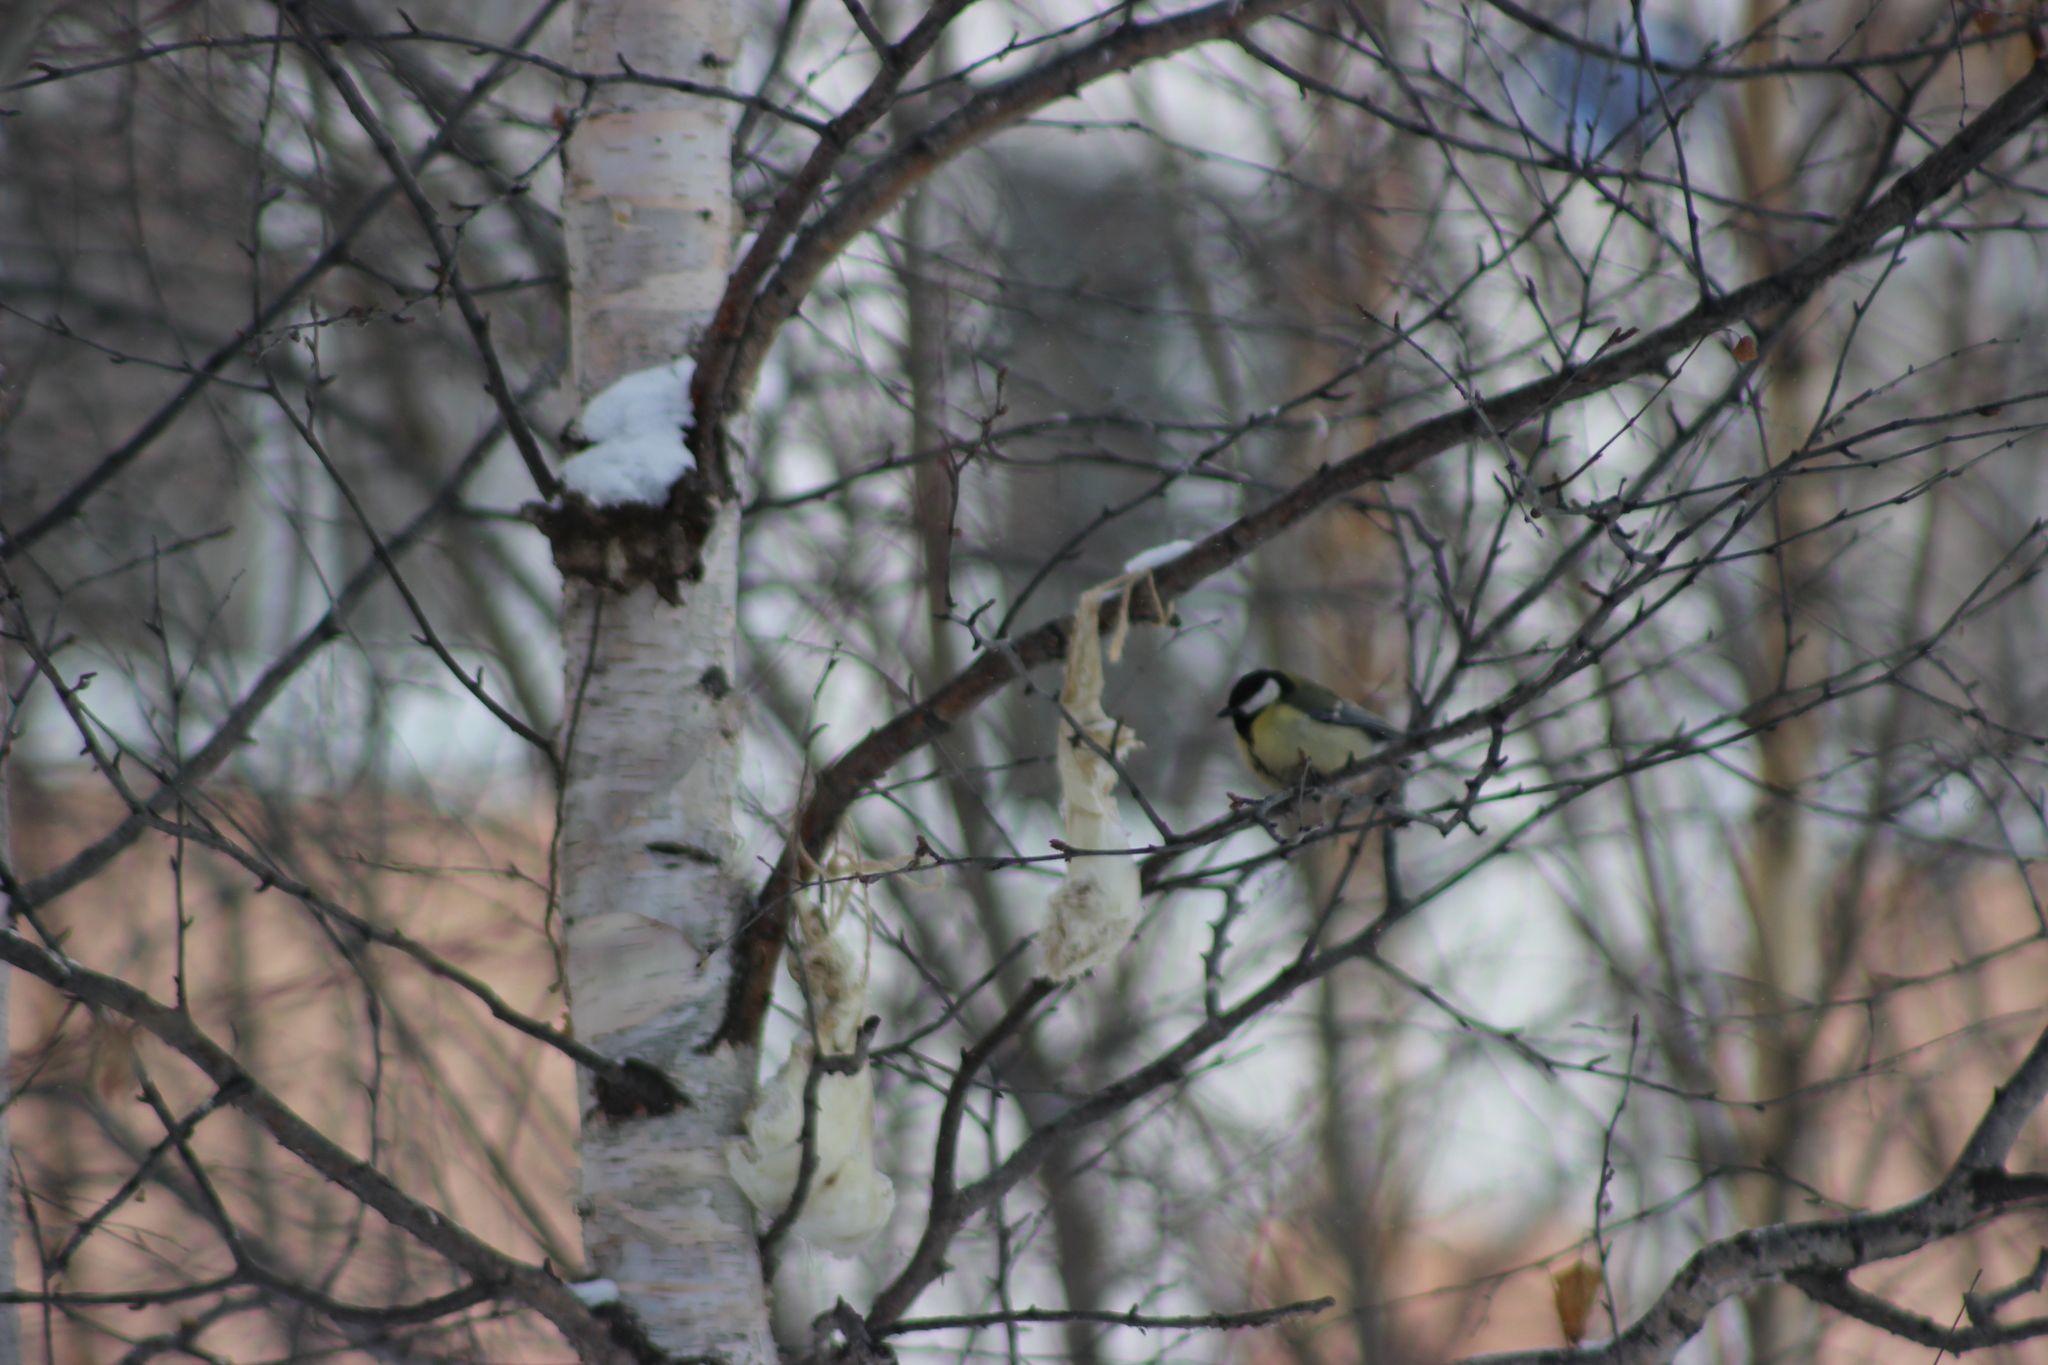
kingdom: Animalia
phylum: Chordata
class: Aves
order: Passeriformes
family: Paridae
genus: Parus
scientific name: Parus major
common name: Great tit
